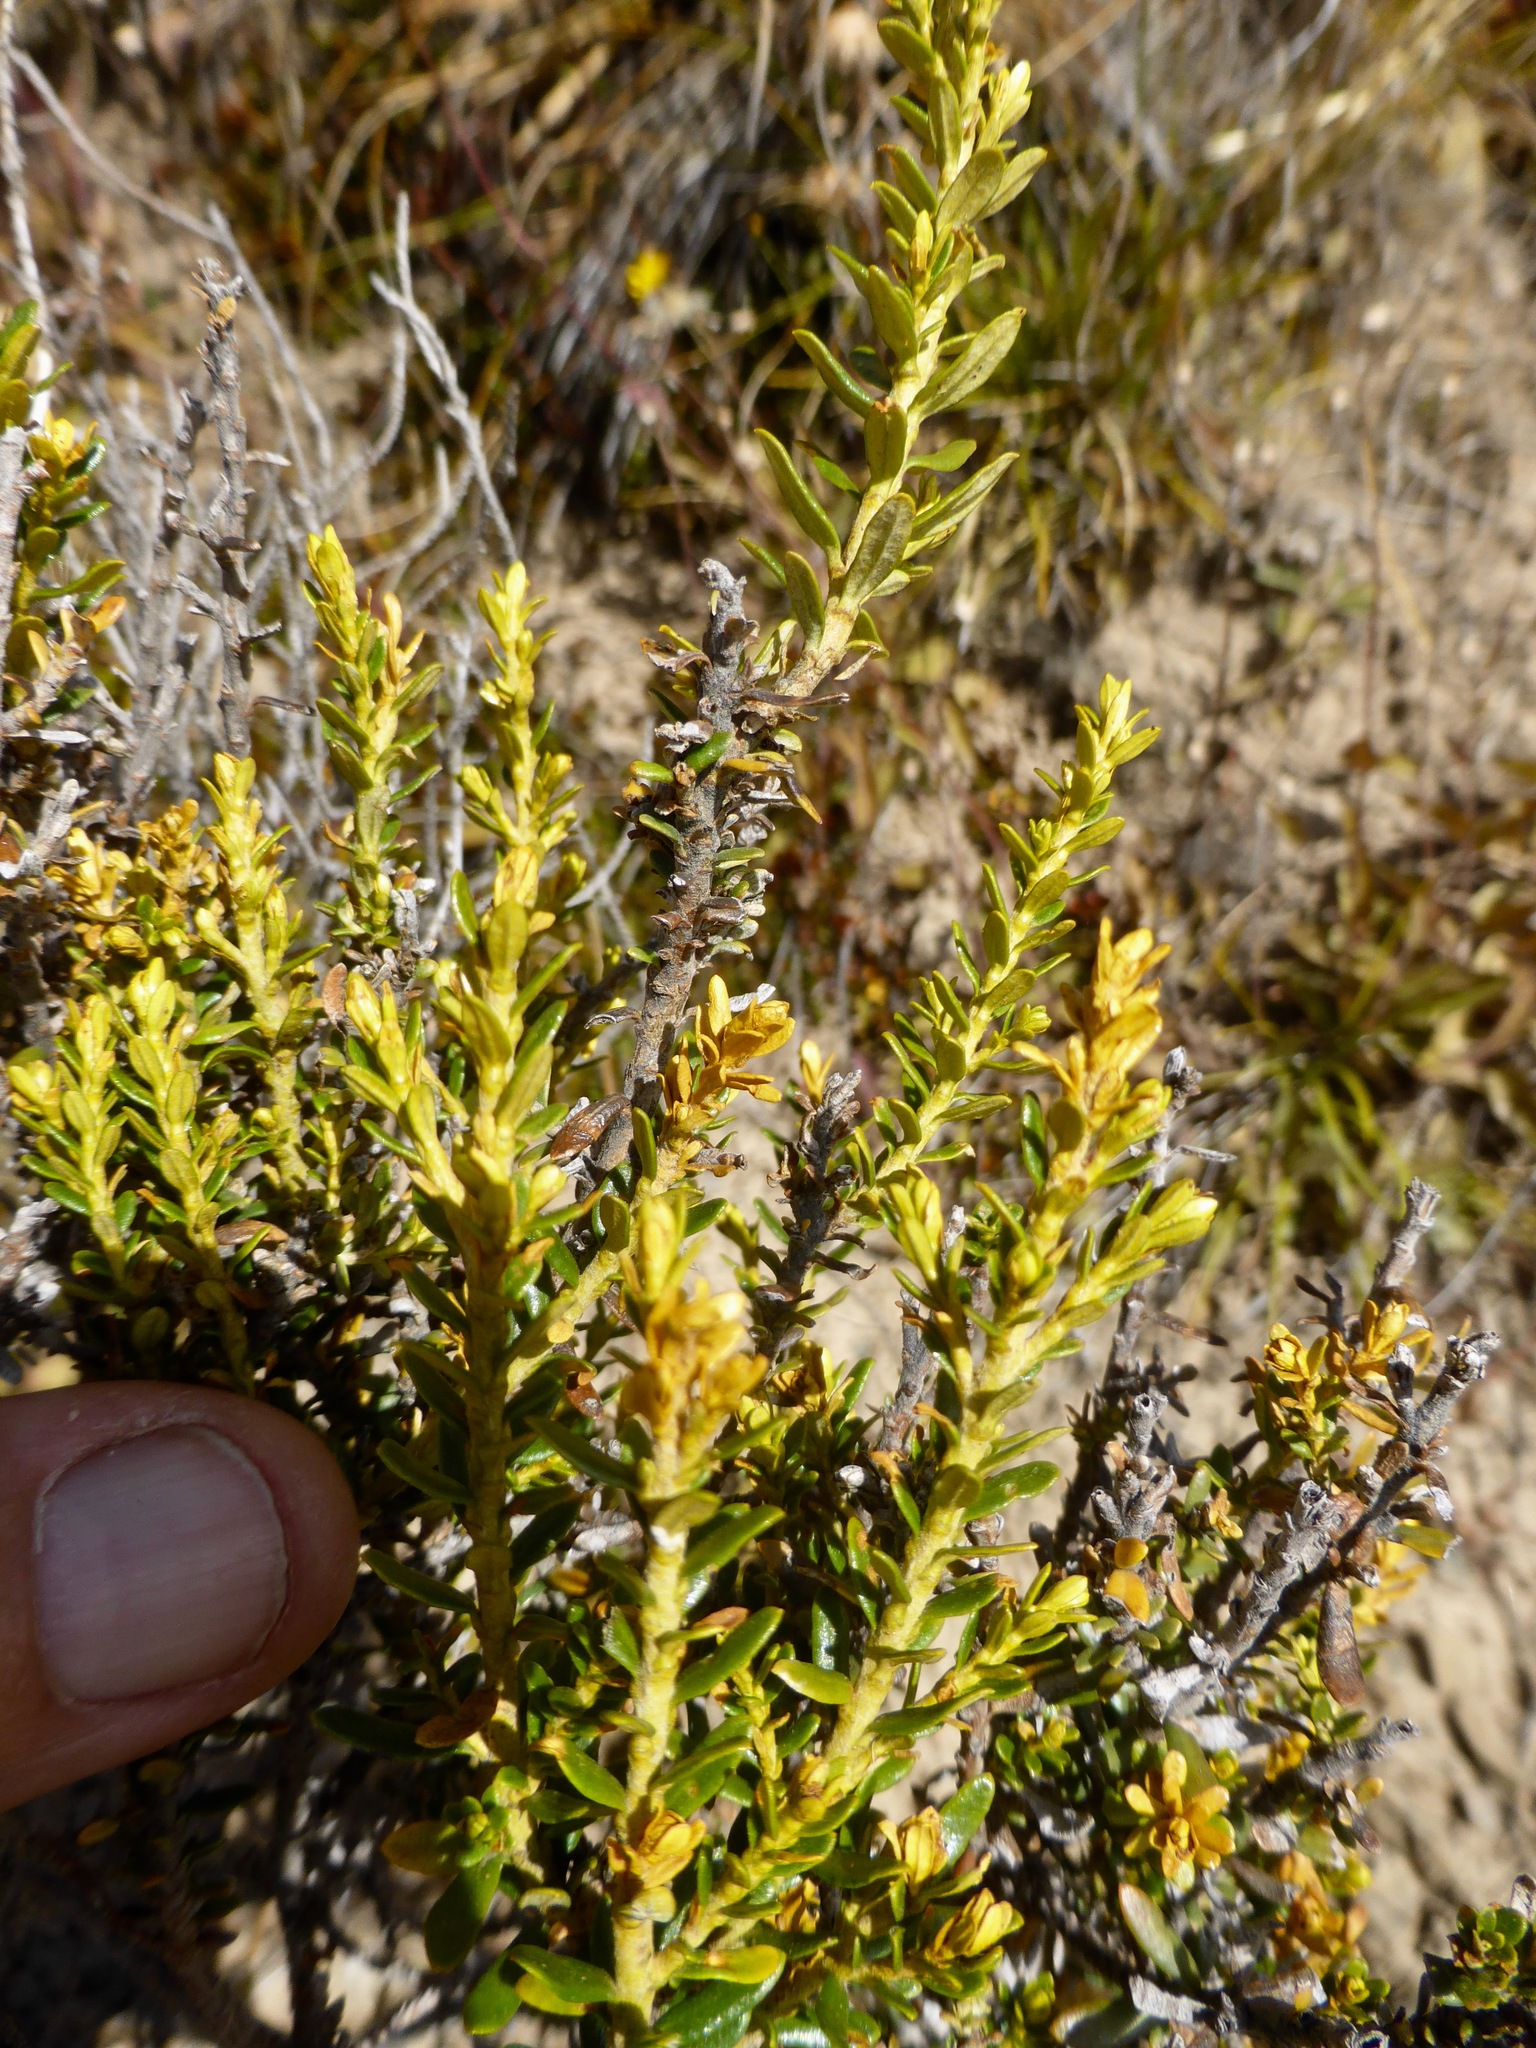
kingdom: Plantae
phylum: Tracheophyta
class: Magnoliopsida
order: Asterales
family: Asteraceae
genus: Ozothamnus
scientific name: Ozothamnus leptophyllus
